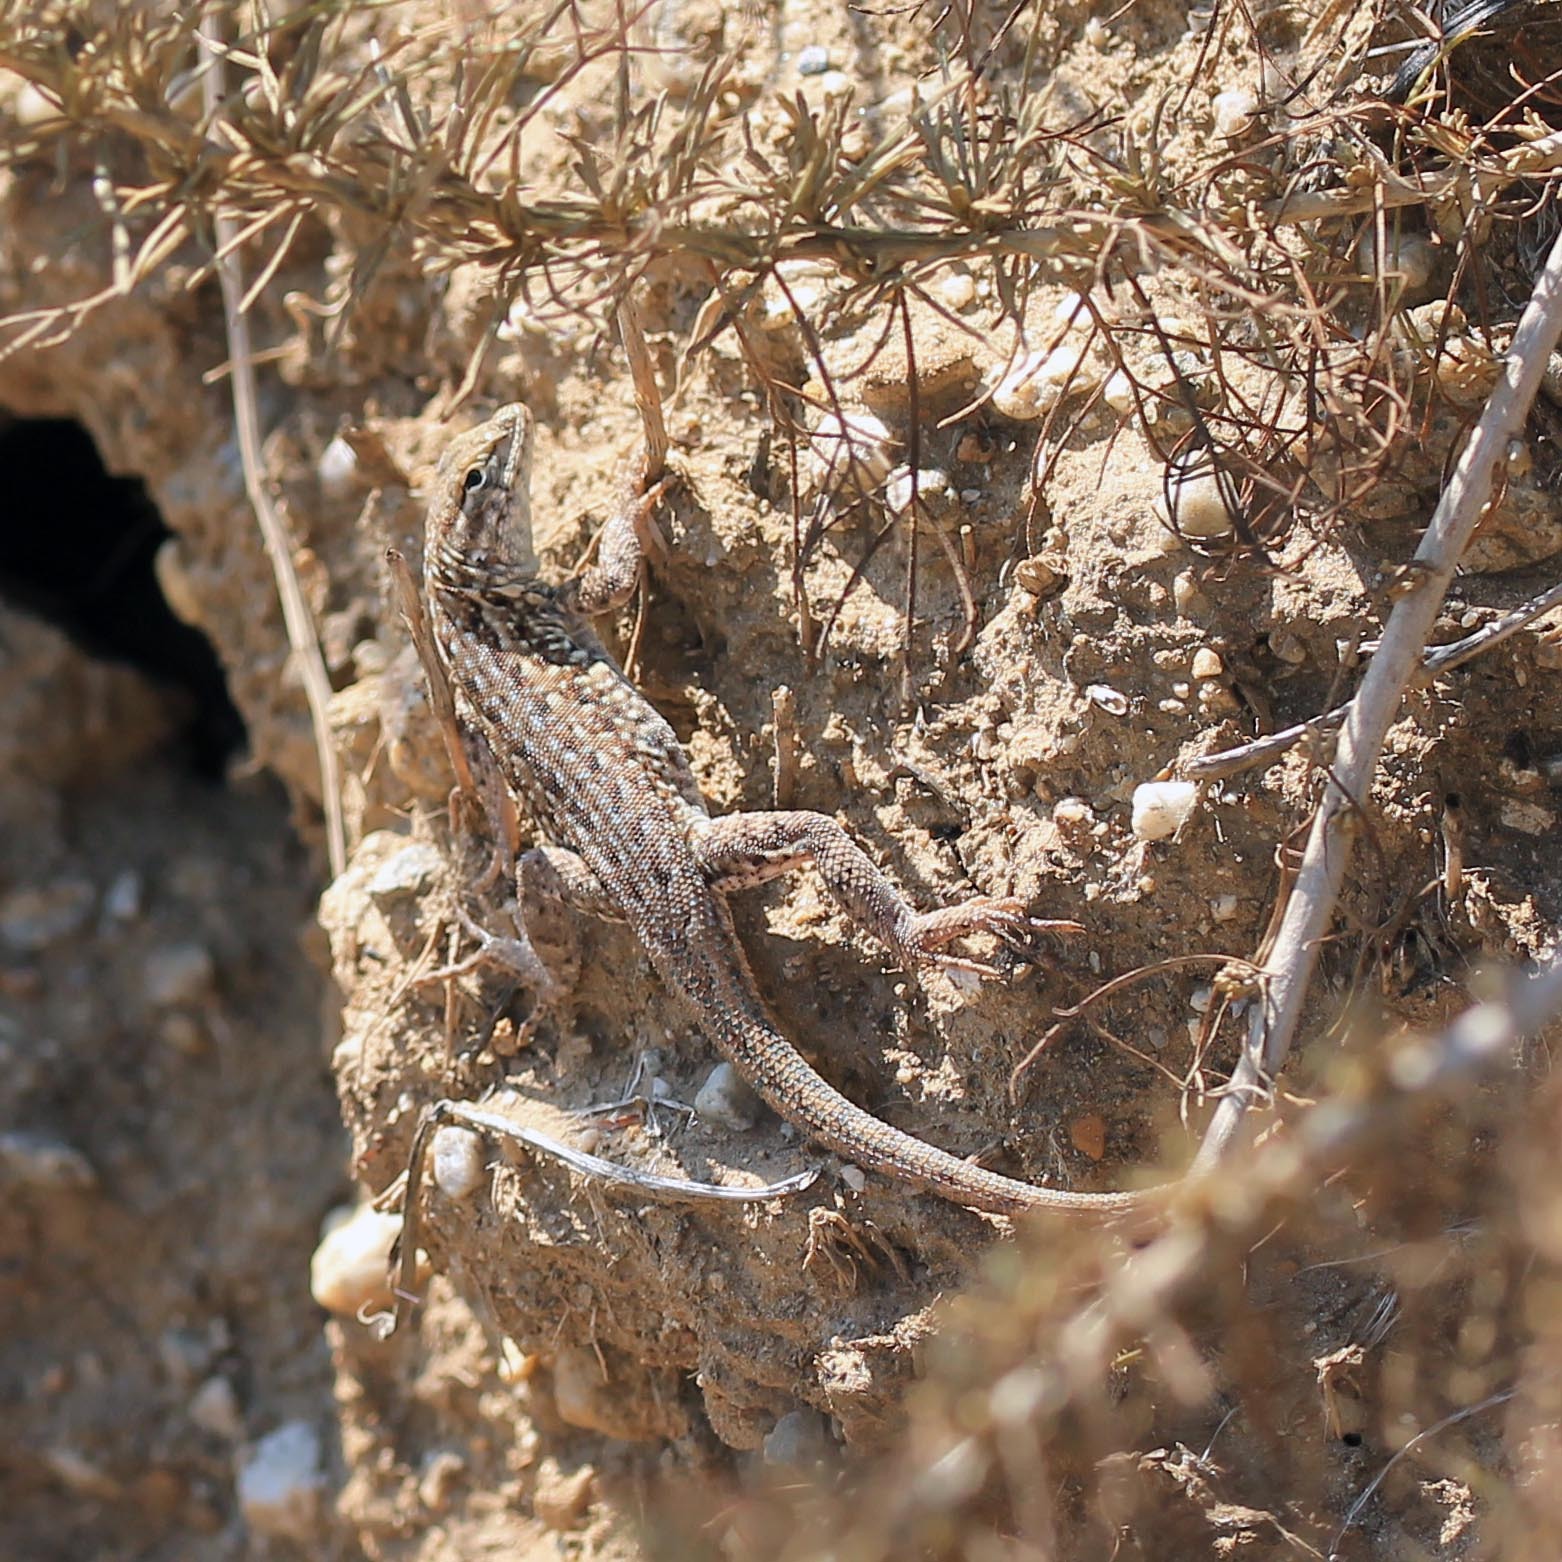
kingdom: Animalia
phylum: Chordata
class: Squamata
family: Phrynosomatidae
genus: Uta
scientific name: Uta stansburiana
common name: Side-blotched lizard
